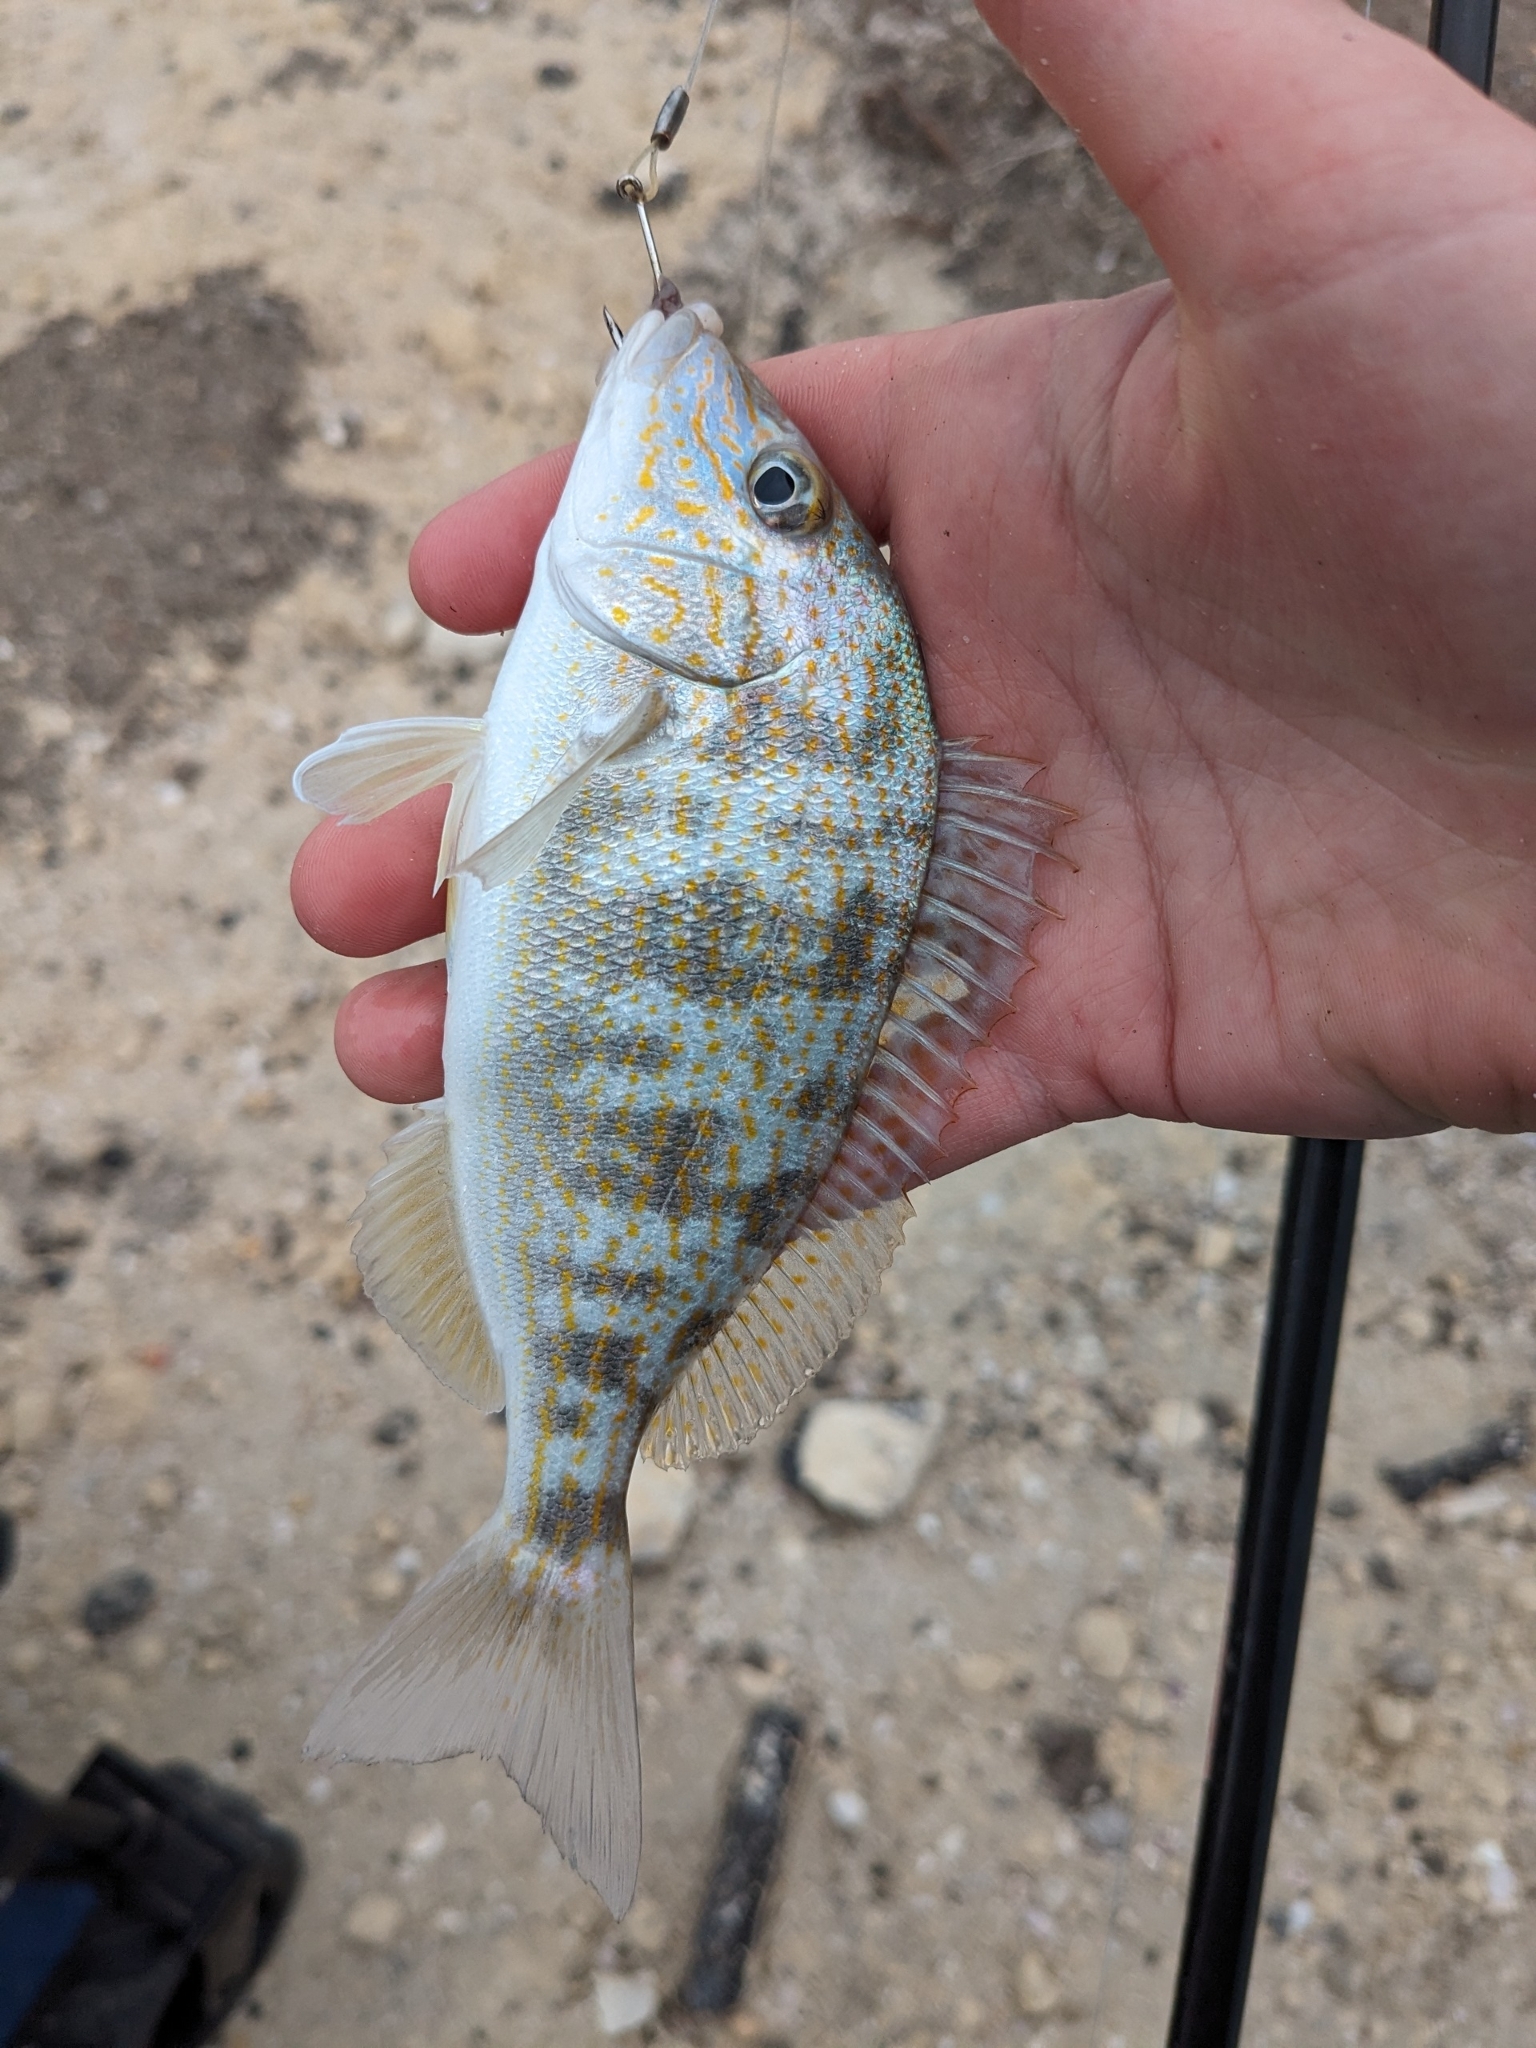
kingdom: Animalia
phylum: Chordata
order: Perciformes
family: Haemulidae
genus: Orthopristis
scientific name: Orthopristis chrysoptera
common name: Pigfish
